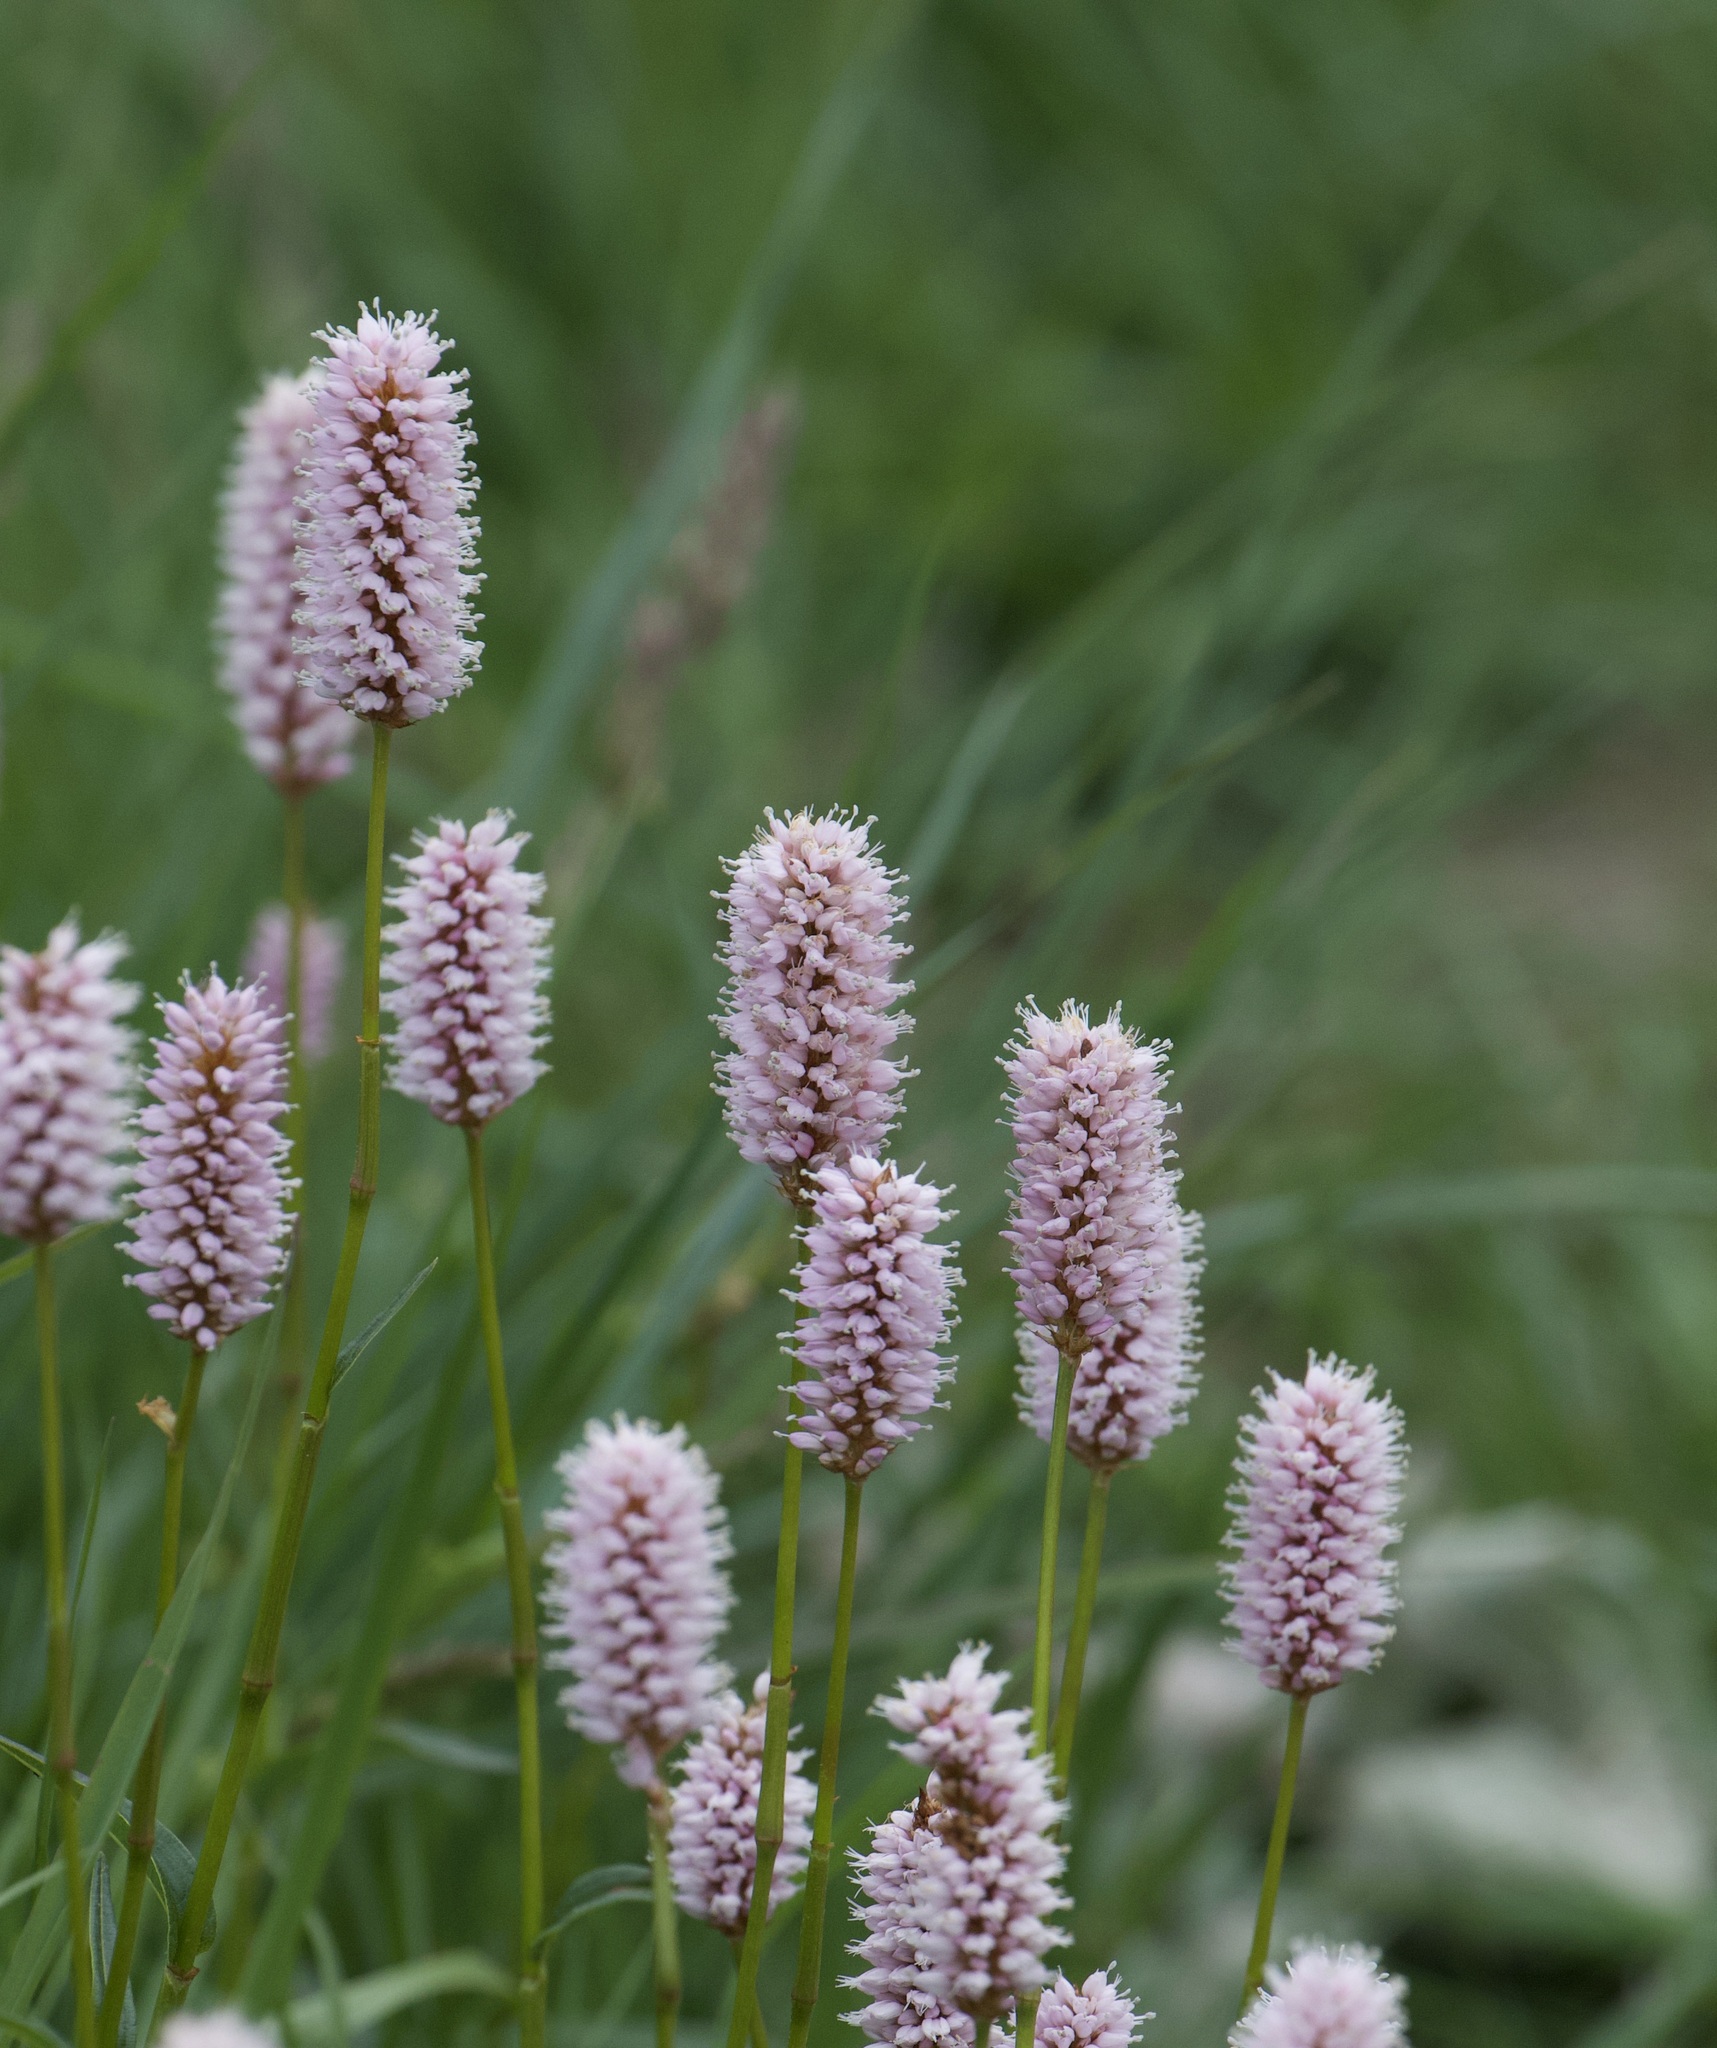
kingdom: Plantae
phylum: Tracheophyta
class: Magnoliopsida
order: Caryophyllales
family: Polygonaceae
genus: Bistorta
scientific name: Bistorta officinalis
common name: Common bistort
